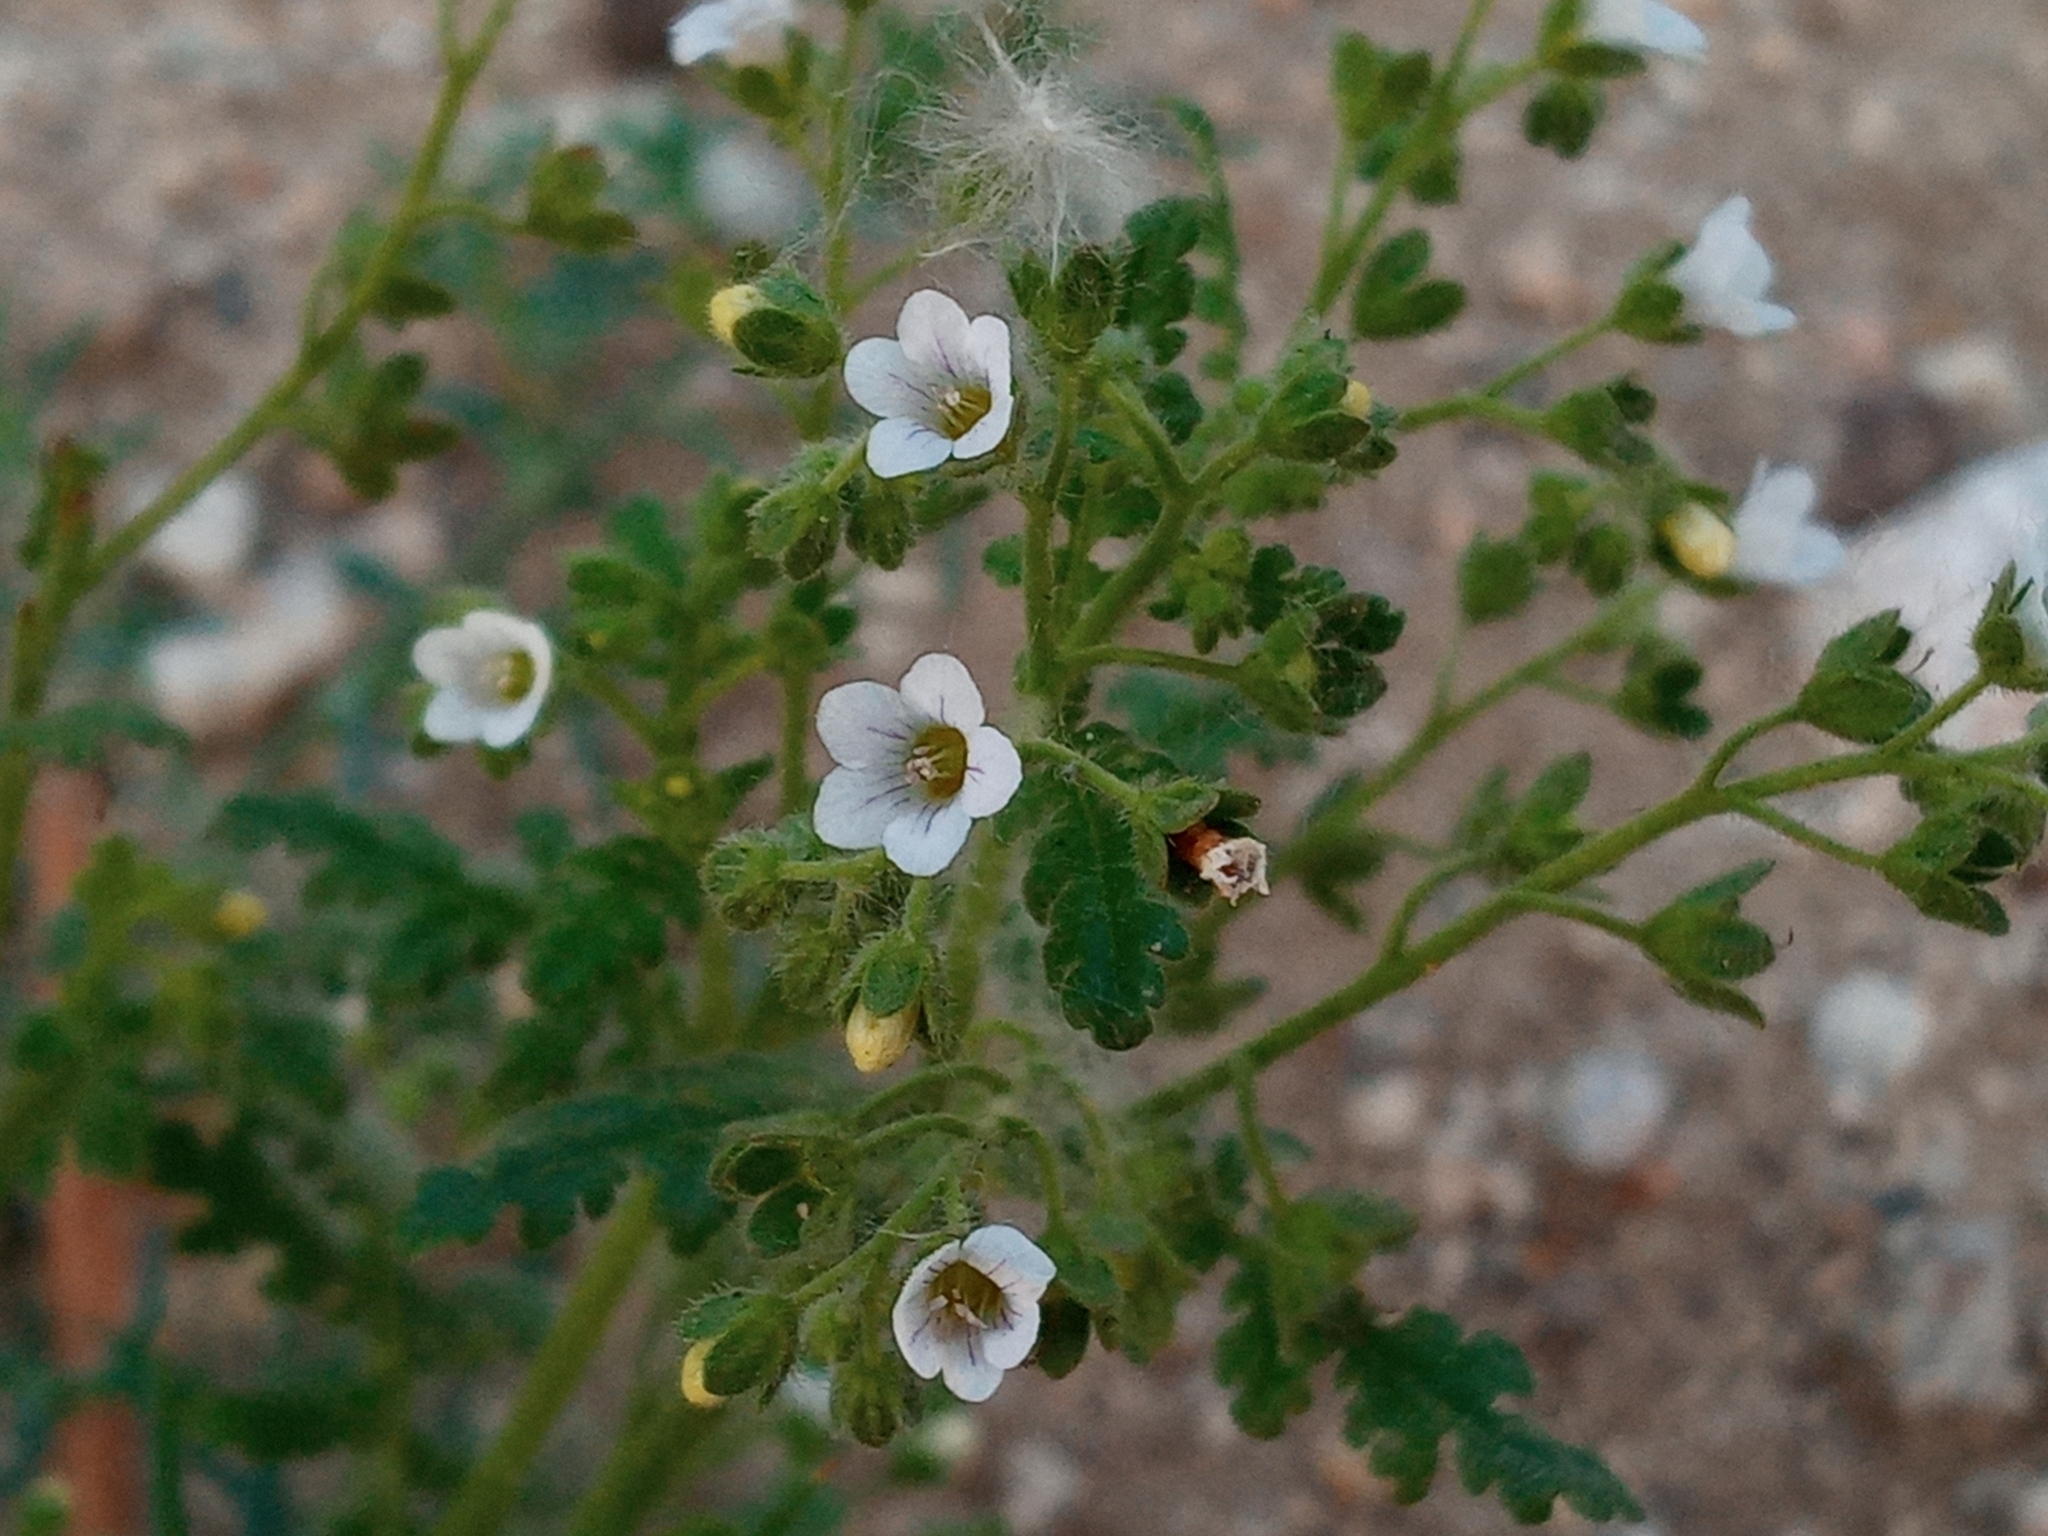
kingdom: Plantae
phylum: Tracheophyta
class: Magnoliopsida
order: Boraginales
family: Hydrophyllaceae
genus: Eucrypta
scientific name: Eucrypta chrysanthemifolia
